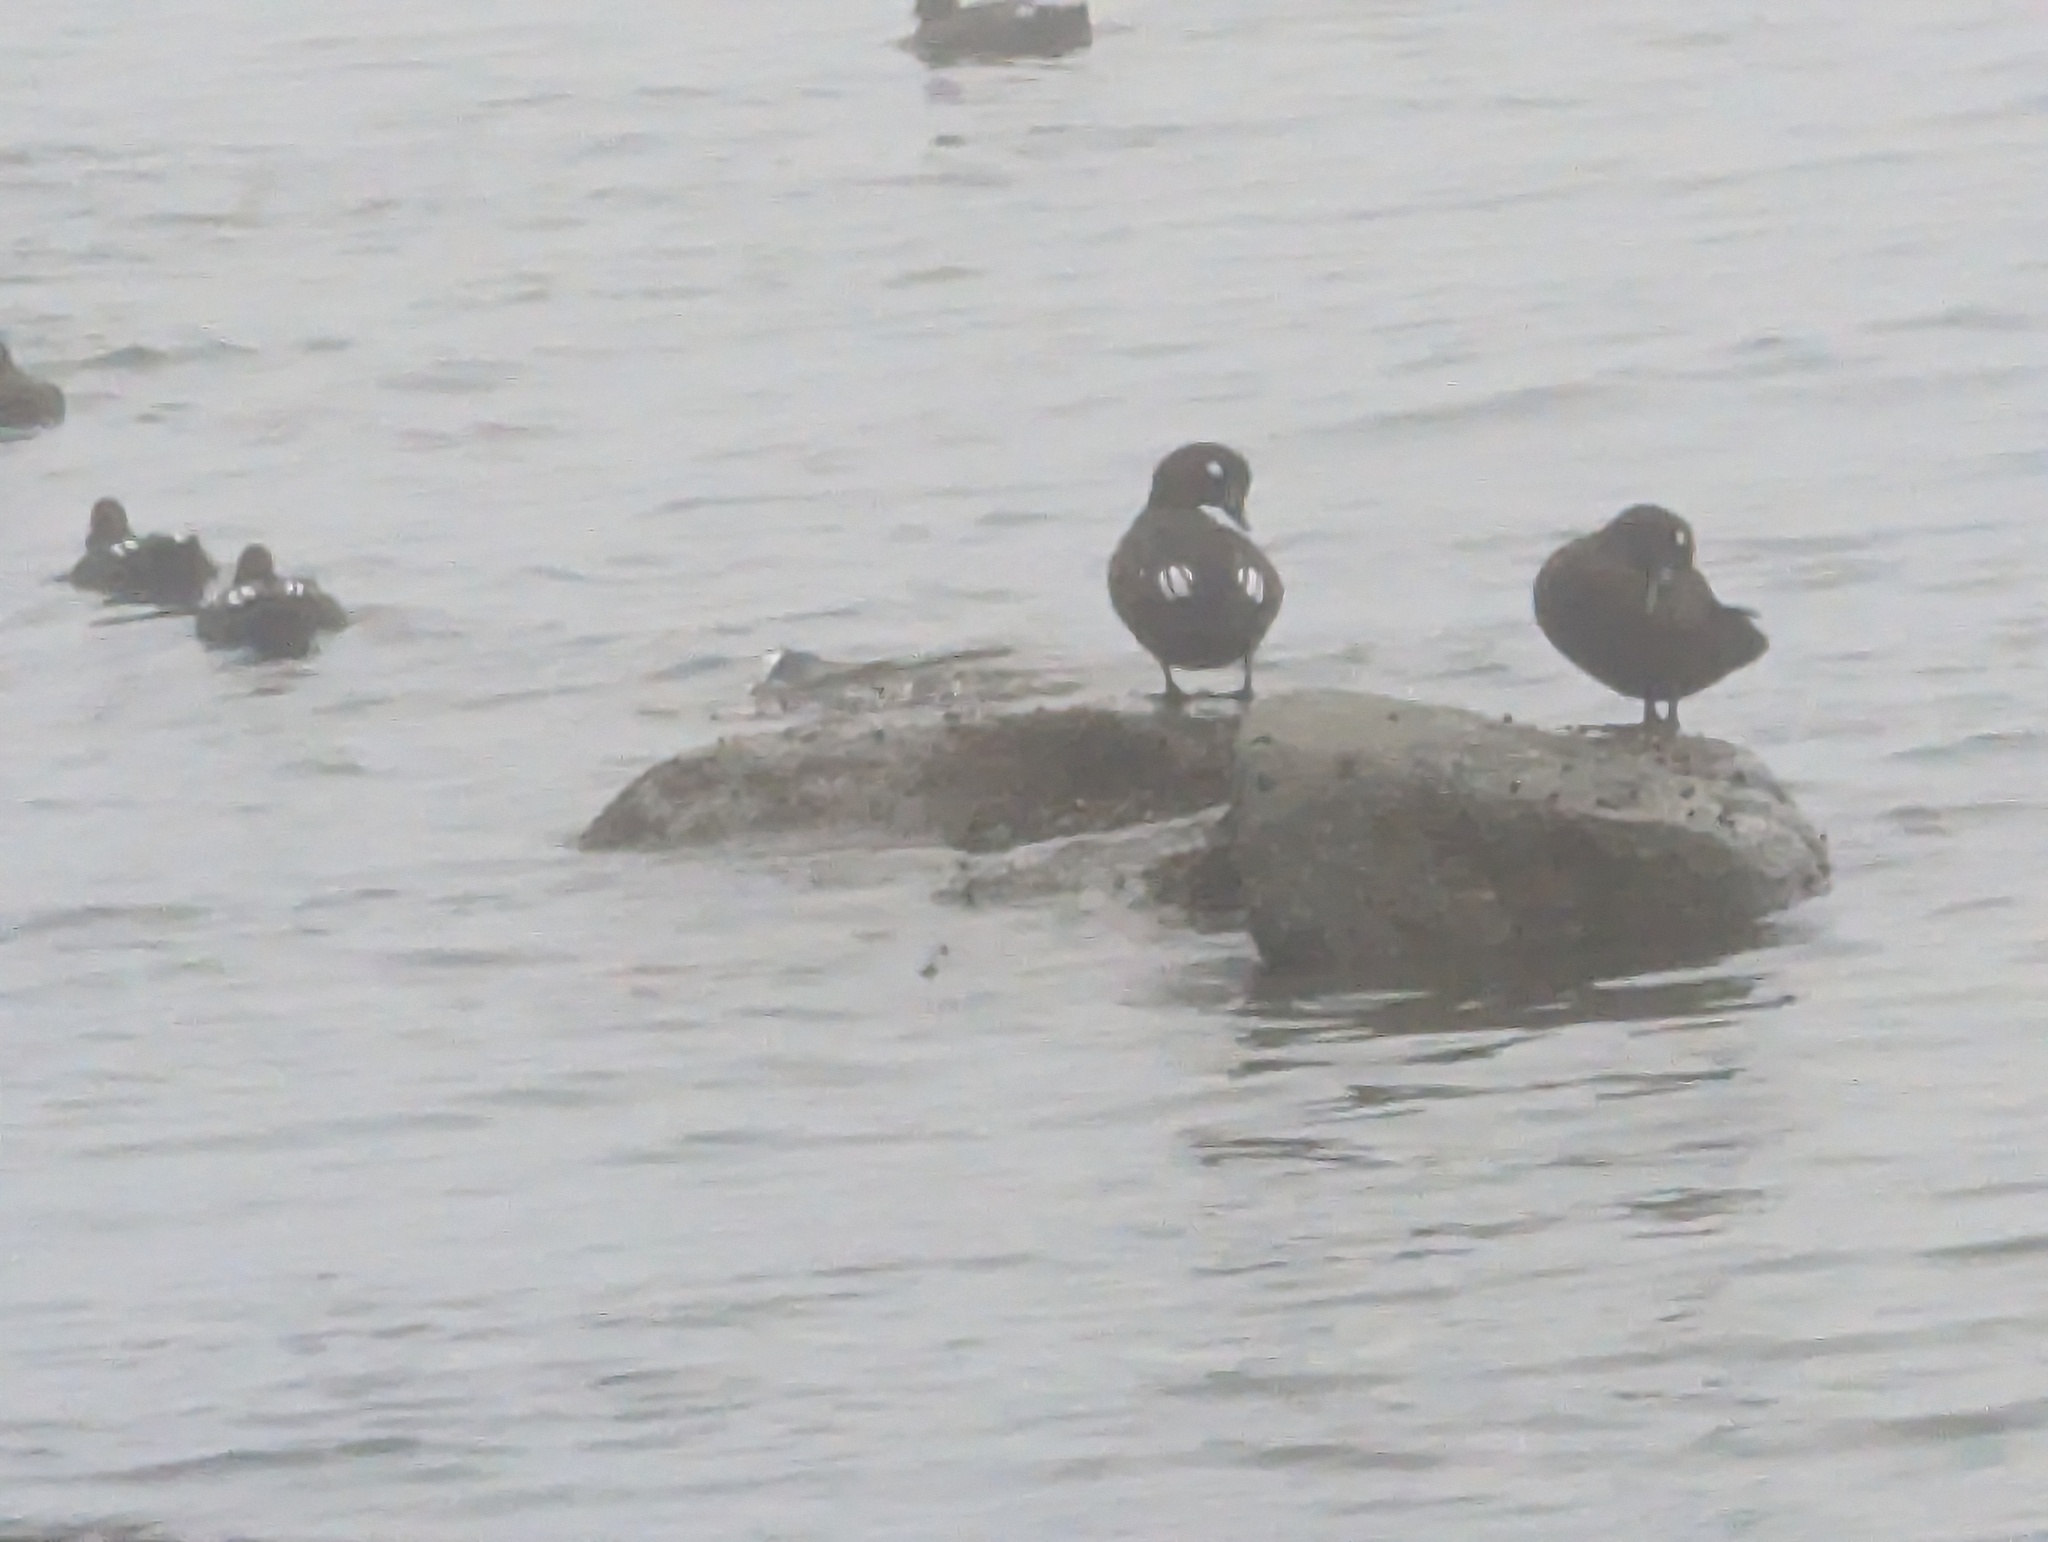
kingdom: Animalia
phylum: Chordata
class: Aves
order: Anseriformes
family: Anatidae
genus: Histrionicus
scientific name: Histrionicus histrionicus
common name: Harlequin duck
